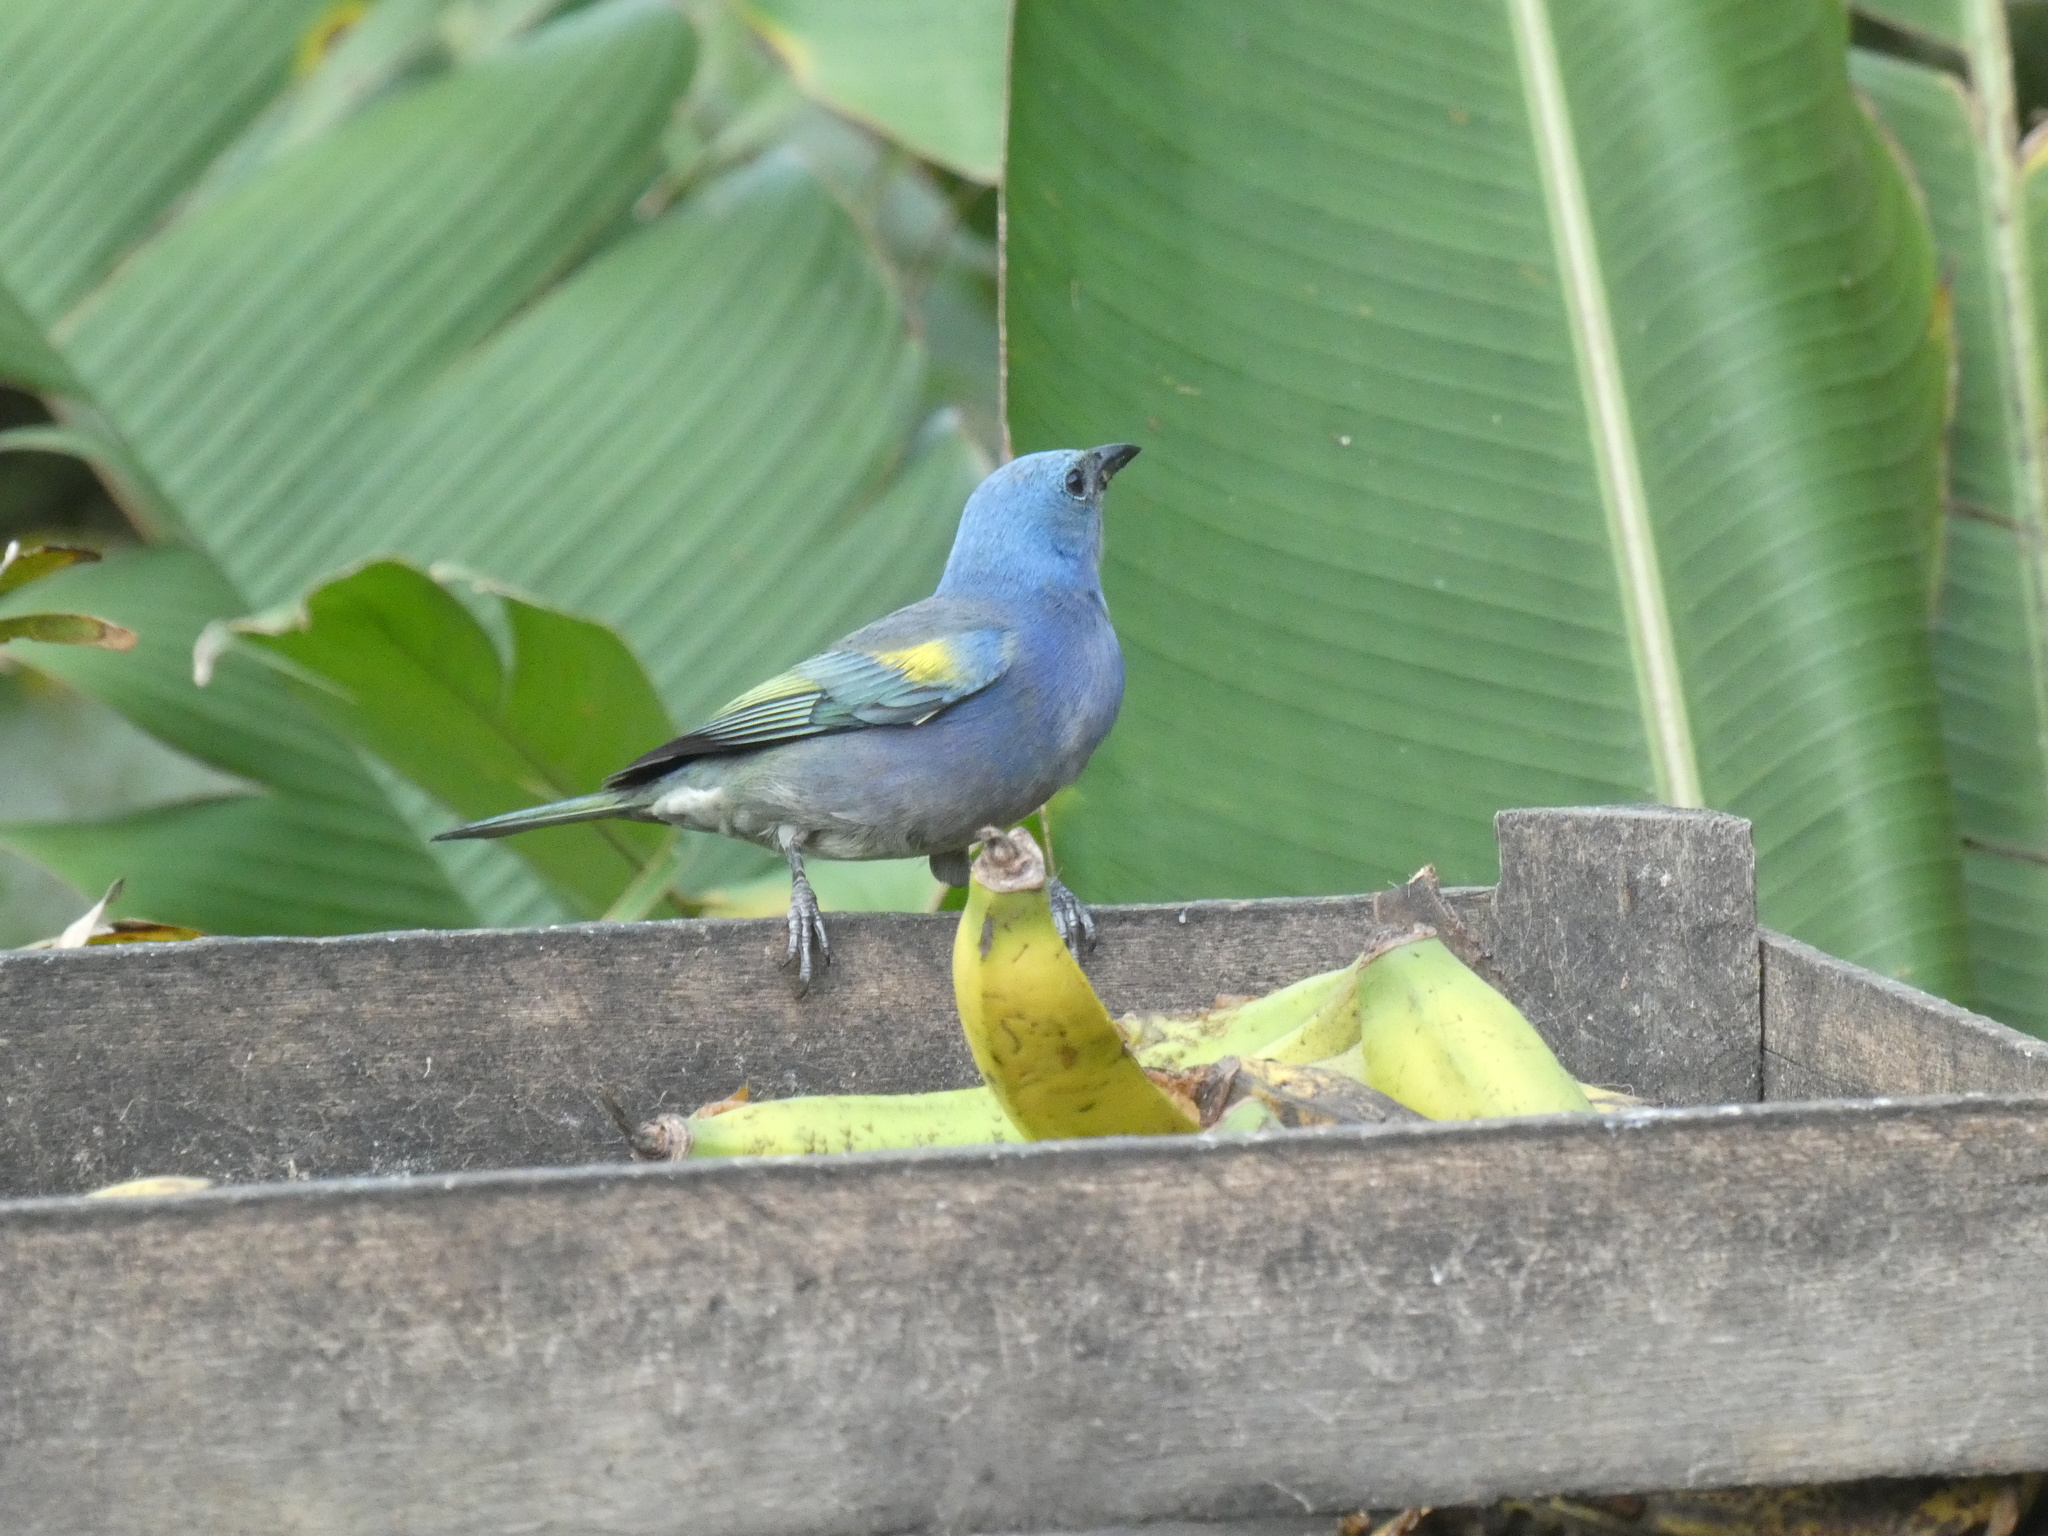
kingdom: Animalia
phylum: Chordata
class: Aves
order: Passeriformes
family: Thraupidae
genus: Thraupis
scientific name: Thraupis ornata
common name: Golden-chevroned tanager
